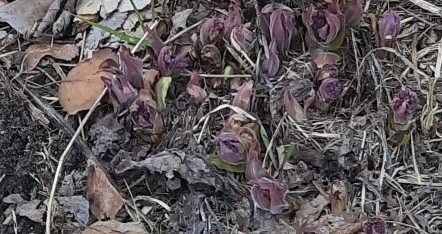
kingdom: Plantae
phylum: Tracheophyta
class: Magnoliopsida
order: Boraginales
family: Boraginaceae
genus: Pulmonaria
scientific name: Pulmonaria mollis
